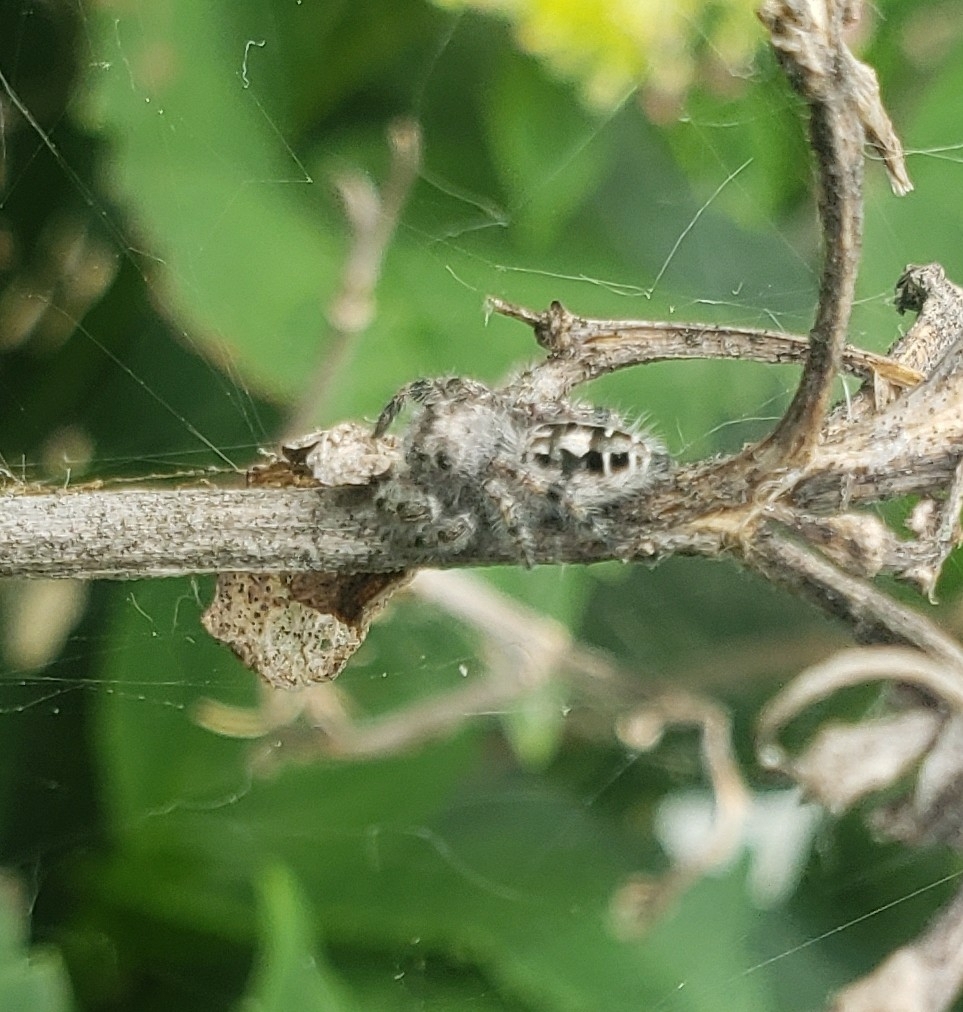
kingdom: Animalia
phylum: Arthropoda
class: Arachnida
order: Araneae
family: Salticidae
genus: Phidippus
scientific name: Phidippus putnami
